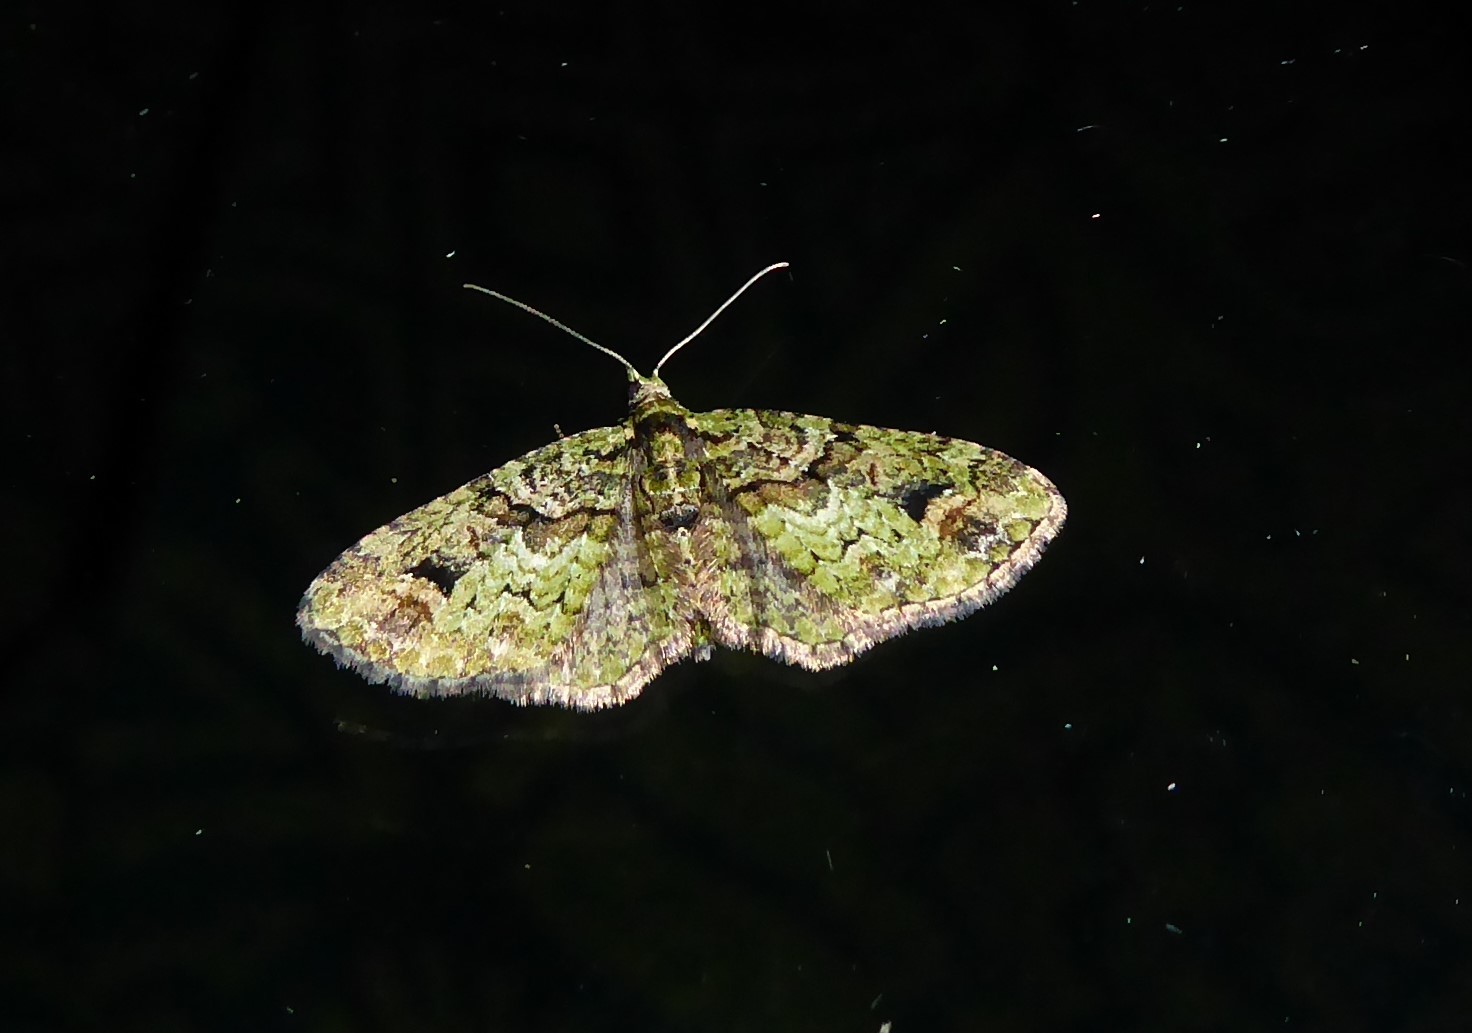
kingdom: Animalia
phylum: Arthropoda
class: Insecta
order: Lepidoptera
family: Geometridae
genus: Idaea
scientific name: Idaea mutanda
